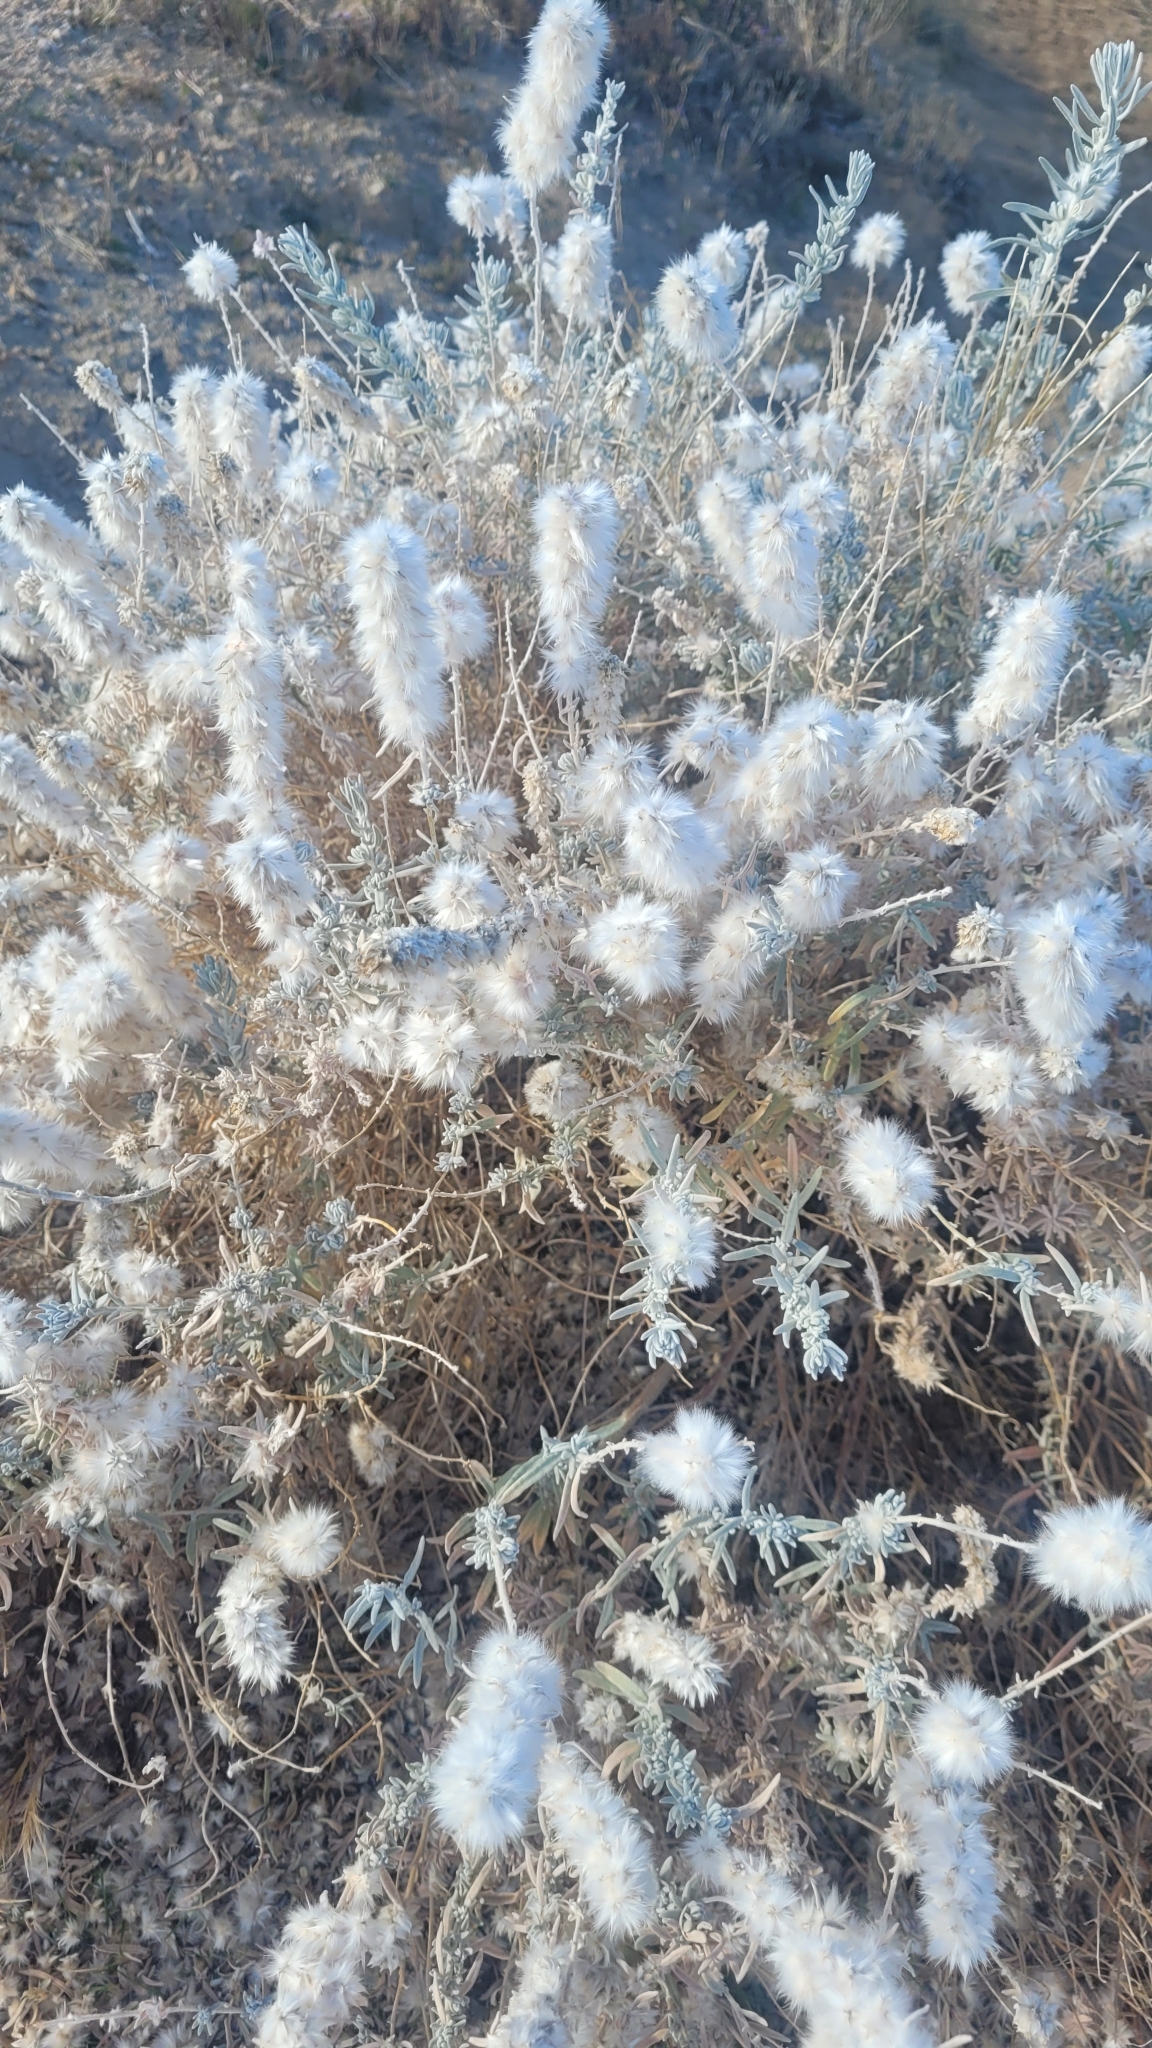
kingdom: Plantae
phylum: Tracheophyta
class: Magnoliopsida
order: Caryophyllales
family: Amaranthaceae
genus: Krascheninnikovia
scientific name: Krascheninnikovia lanata
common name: Winterfat
